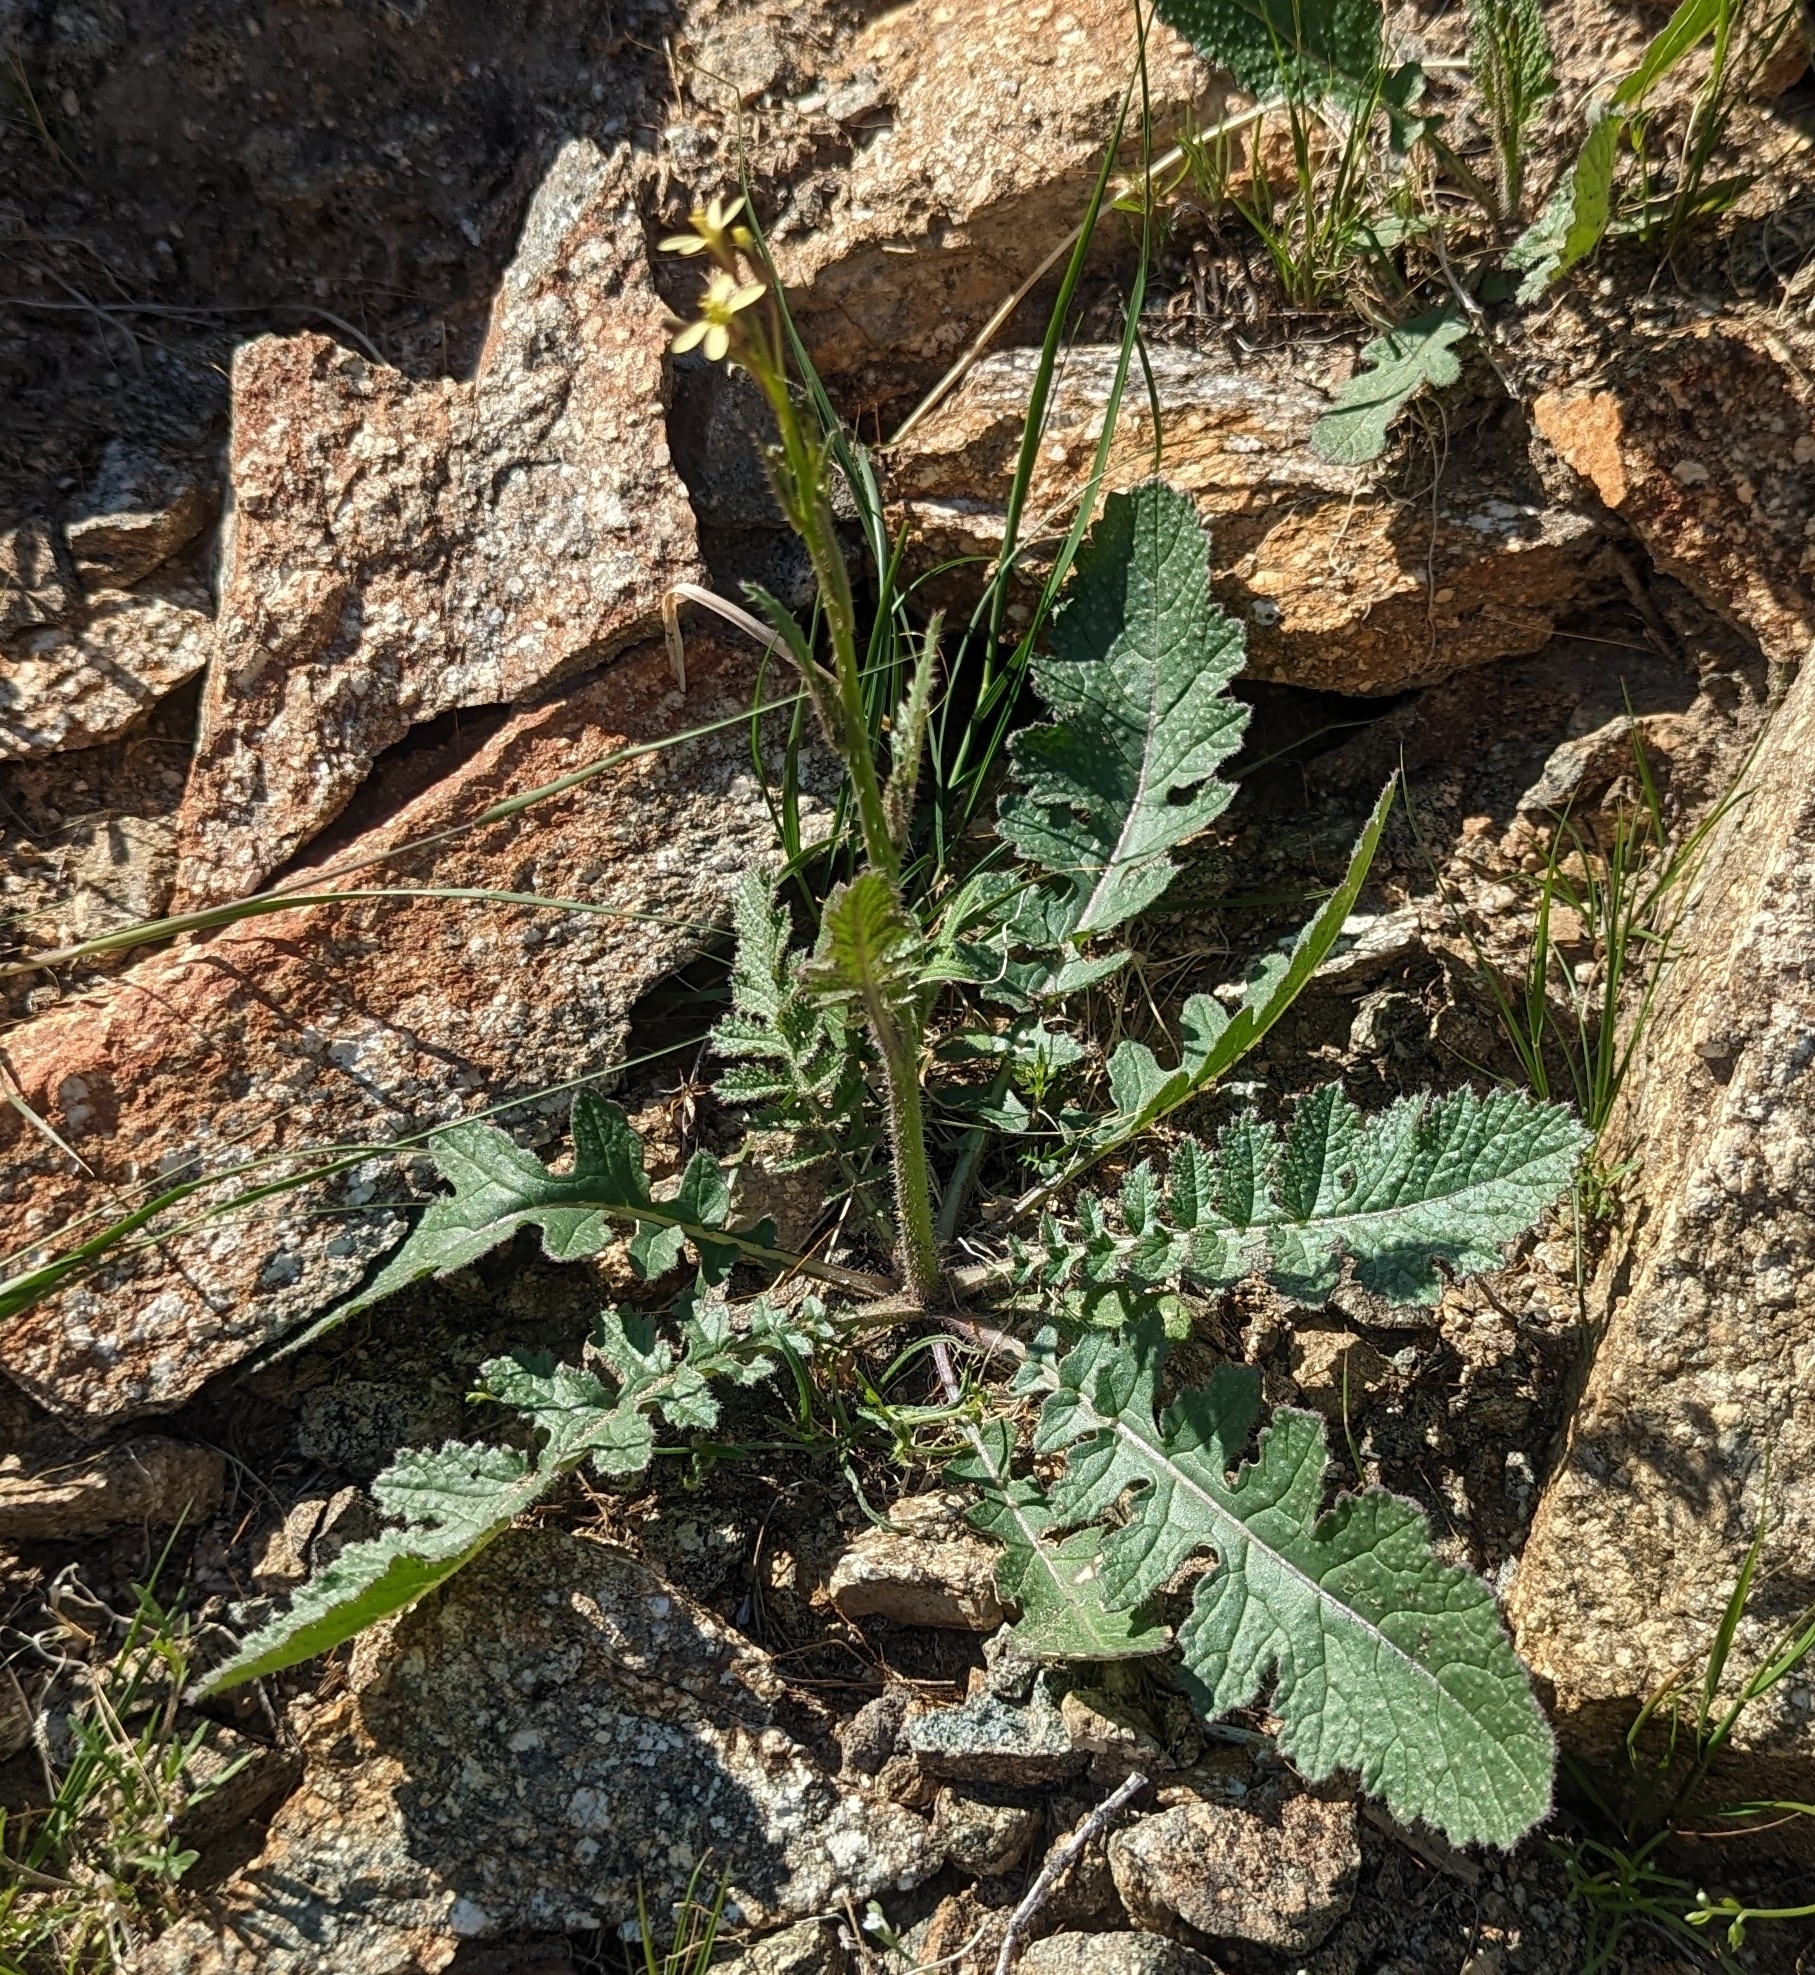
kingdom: Plantae
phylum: Tracheophyta
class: Magnoliopsida
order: Brassicales
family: Brassicaceae
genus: Brassica
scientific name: Brassica tournefortii
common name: Pale cabbage
